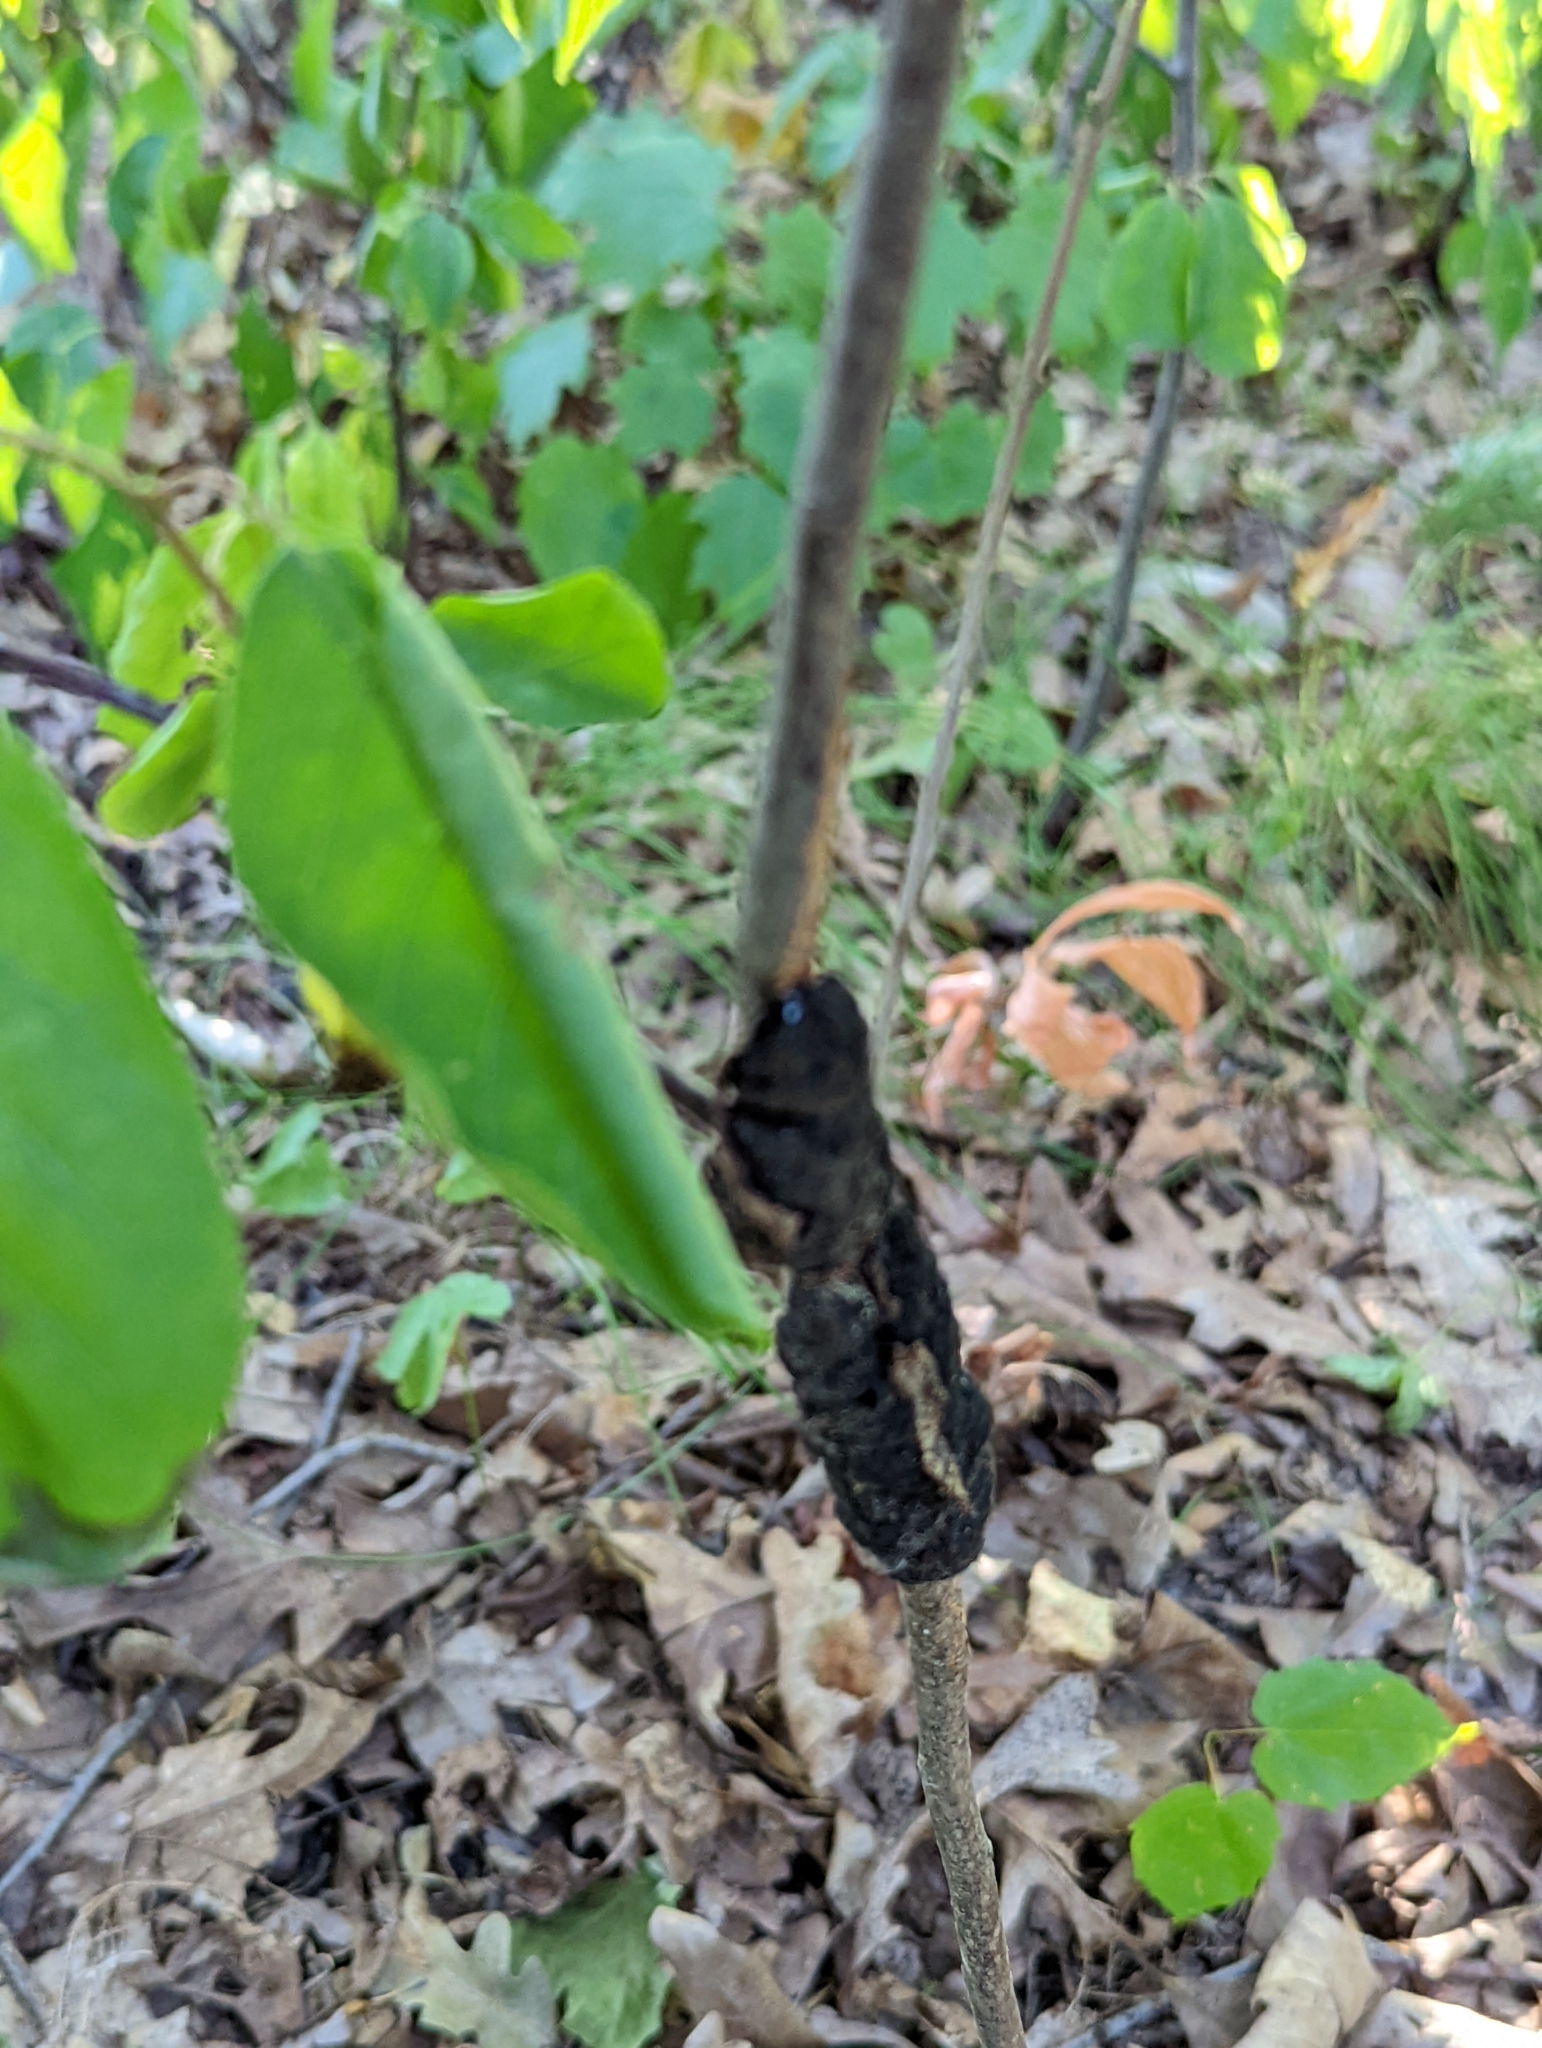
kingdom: Fungi
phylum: Ascomycota
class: Dothideomycetes
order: Venturiales
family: Venturiaceae
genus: Apiosporina
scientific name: Apiosporina morbosa
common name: Black knot
